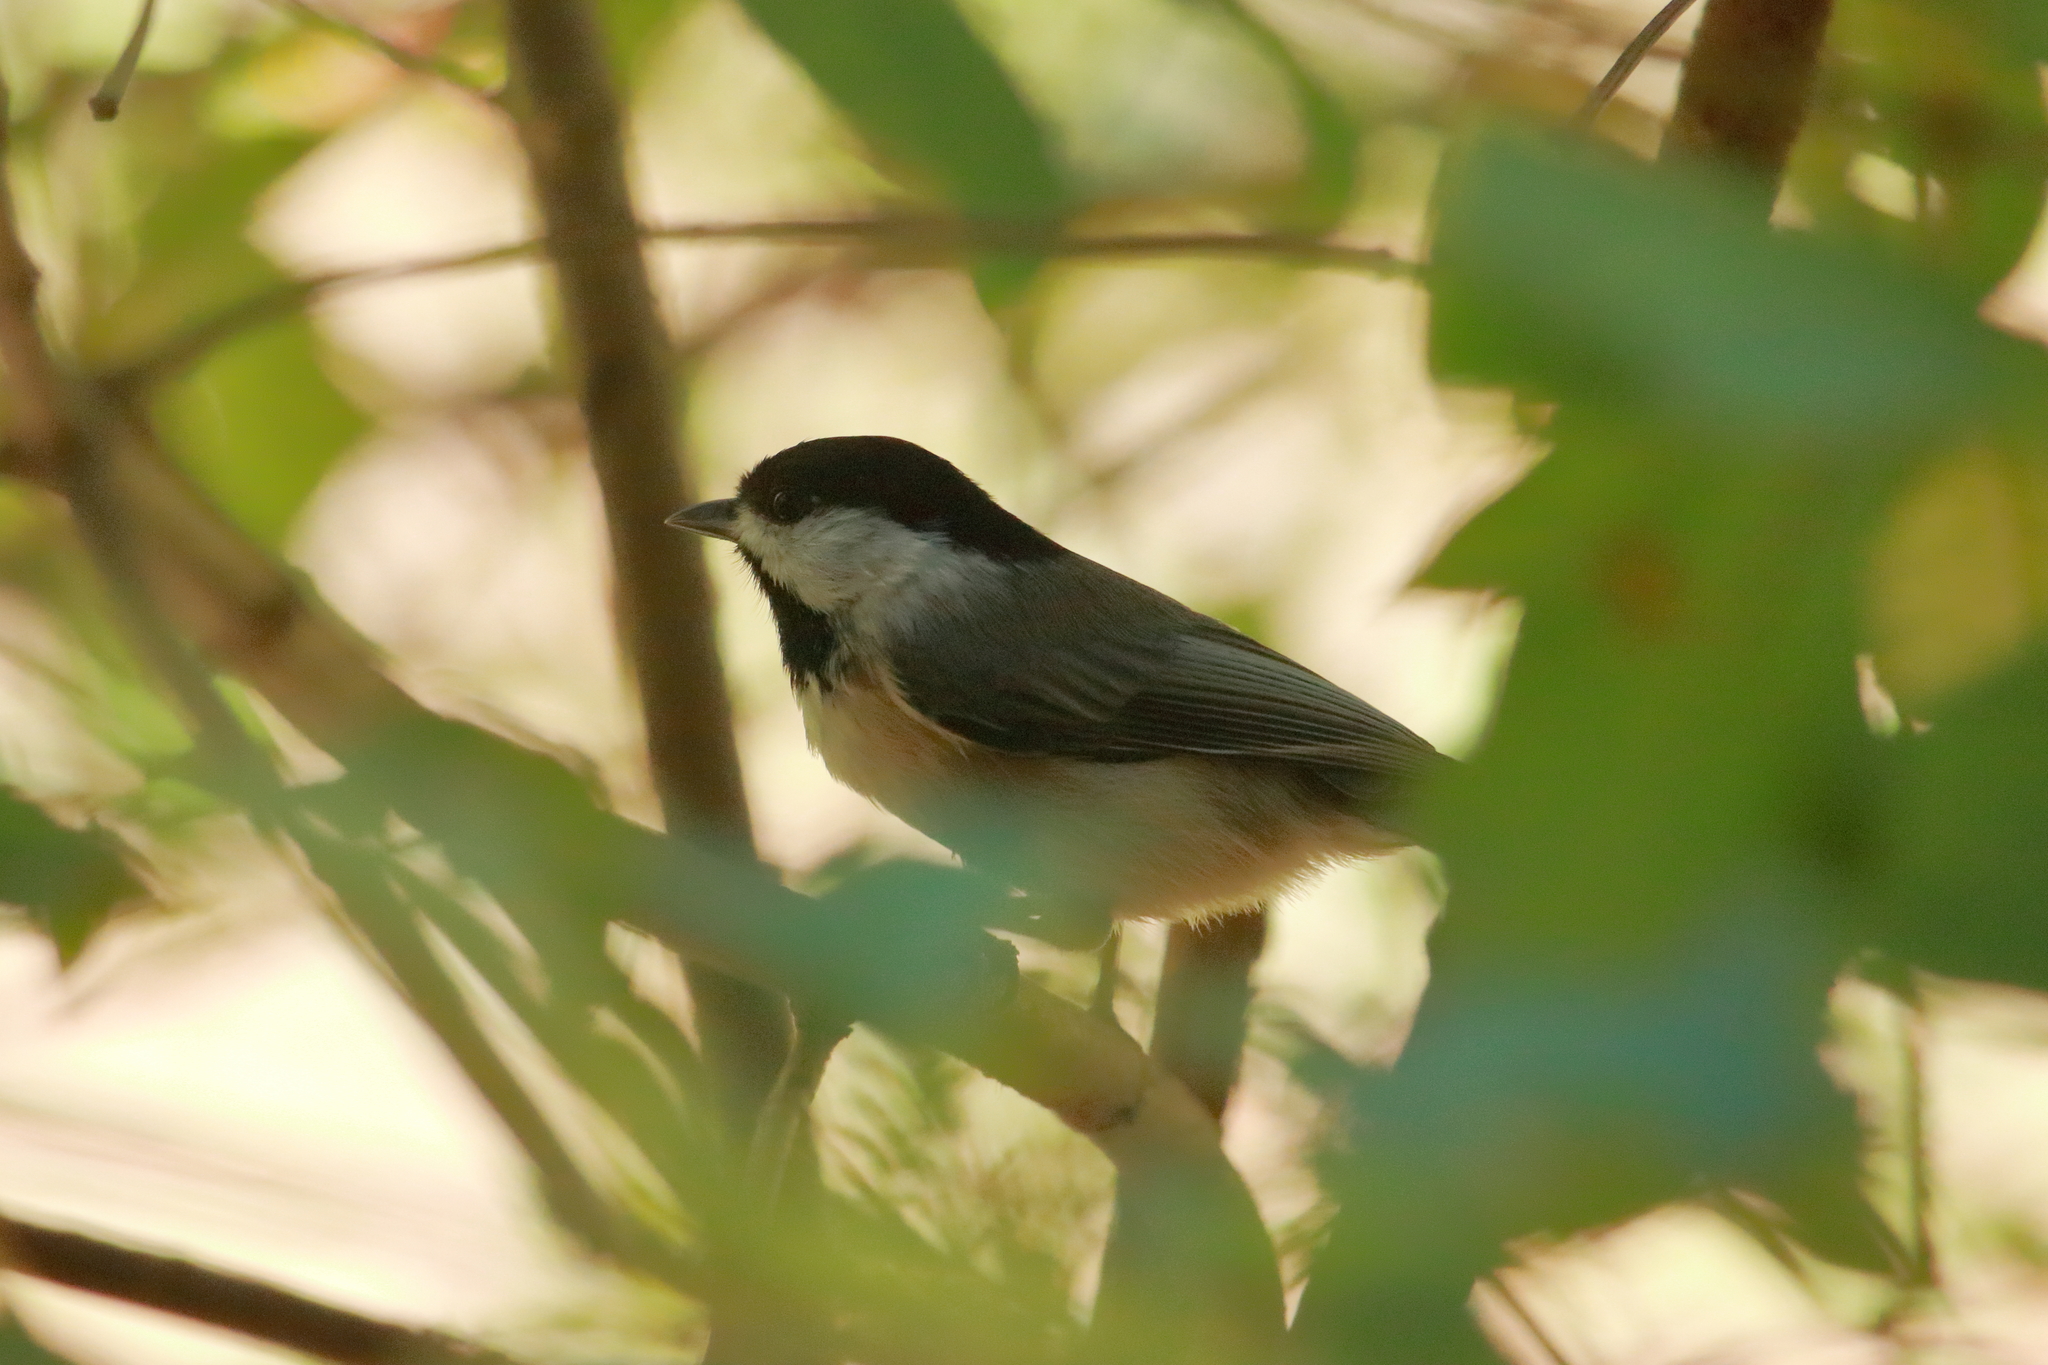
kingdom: Animalia
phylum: Chordata
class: Aves
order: Passeriformes
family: Paridae
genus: Poecile
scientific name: Poecile carolinensis
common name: Carolina chickadee
